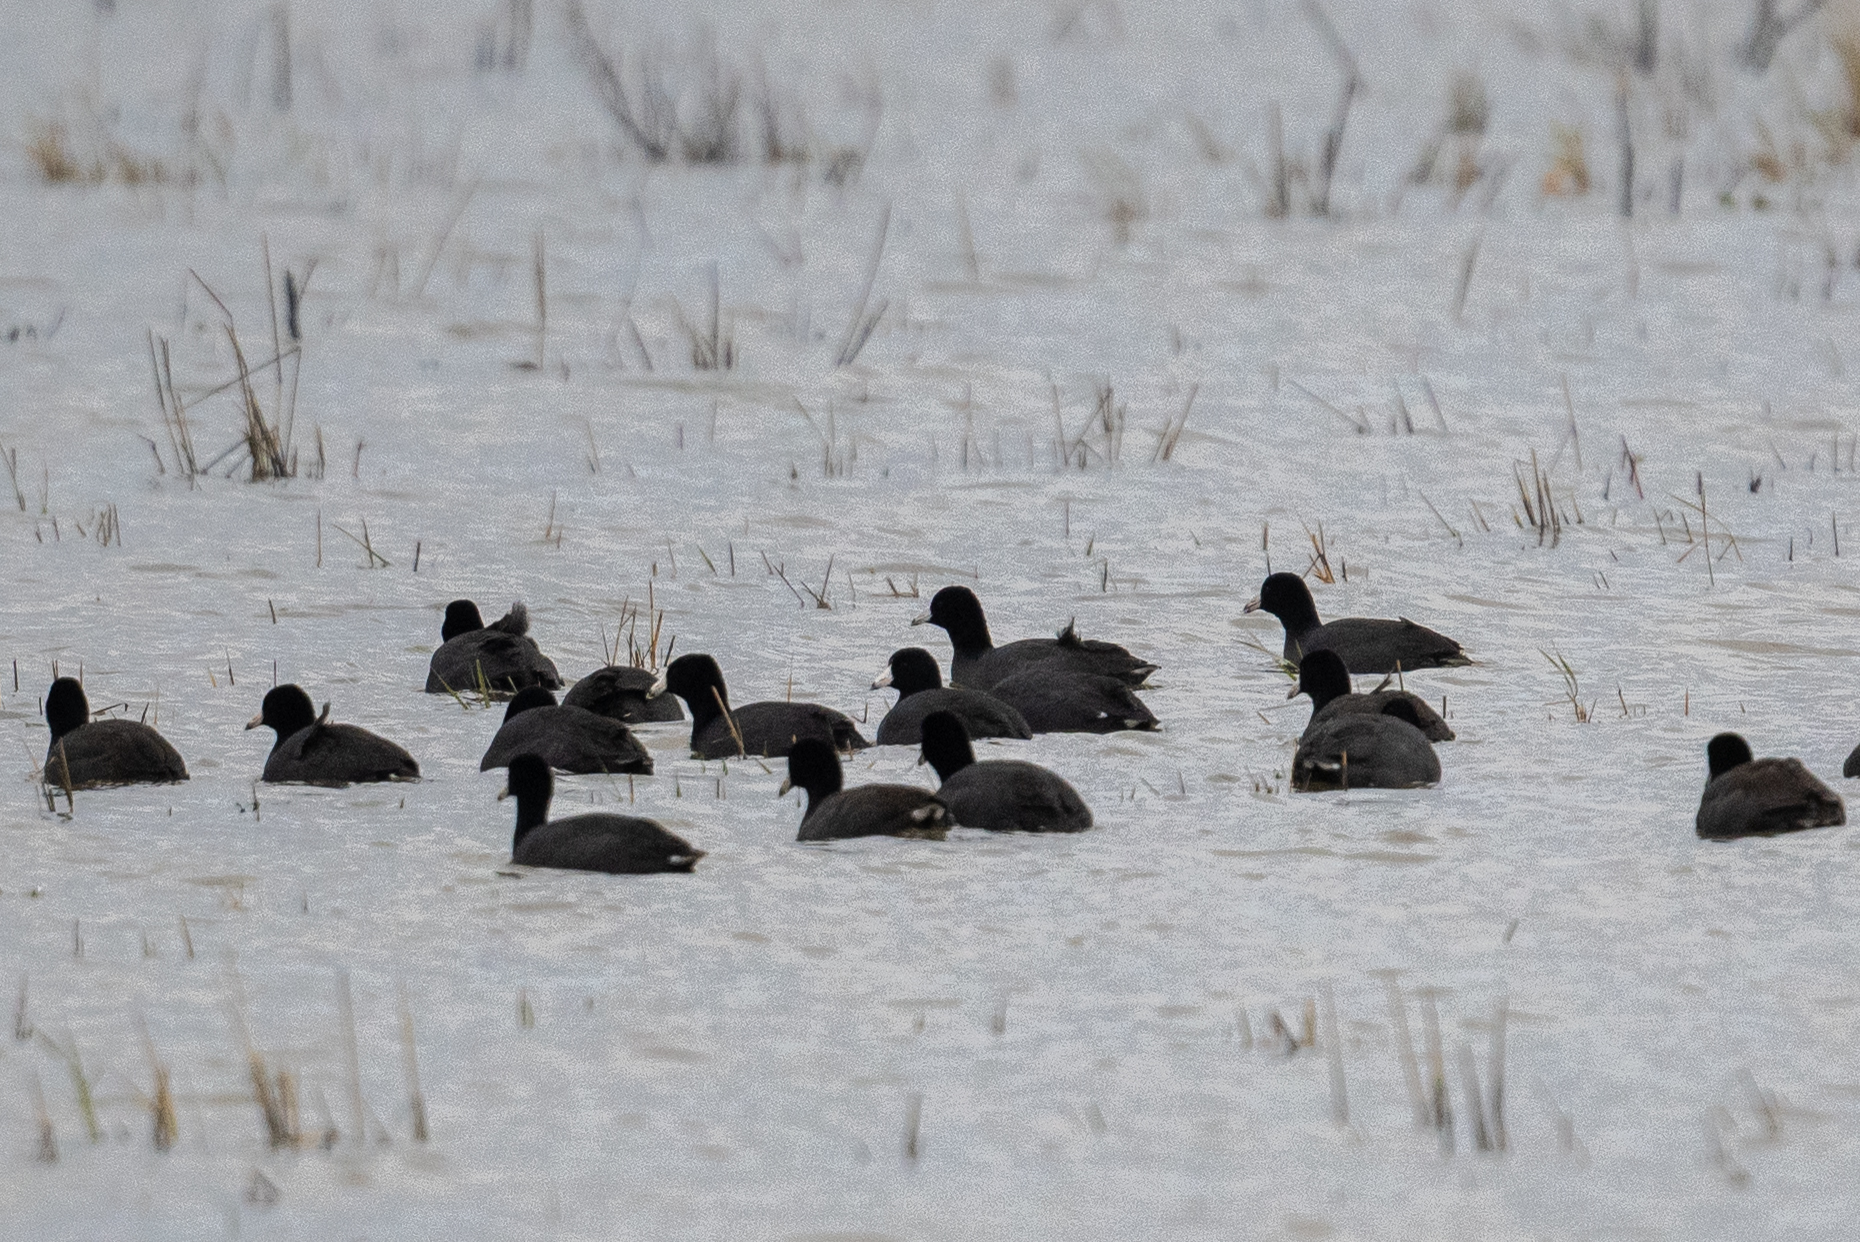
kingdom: Animalia
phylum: Chordata
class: Aves
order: Gruiformes
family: Rallidae
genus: Fulica
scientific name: Fulica americana
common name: American coot
